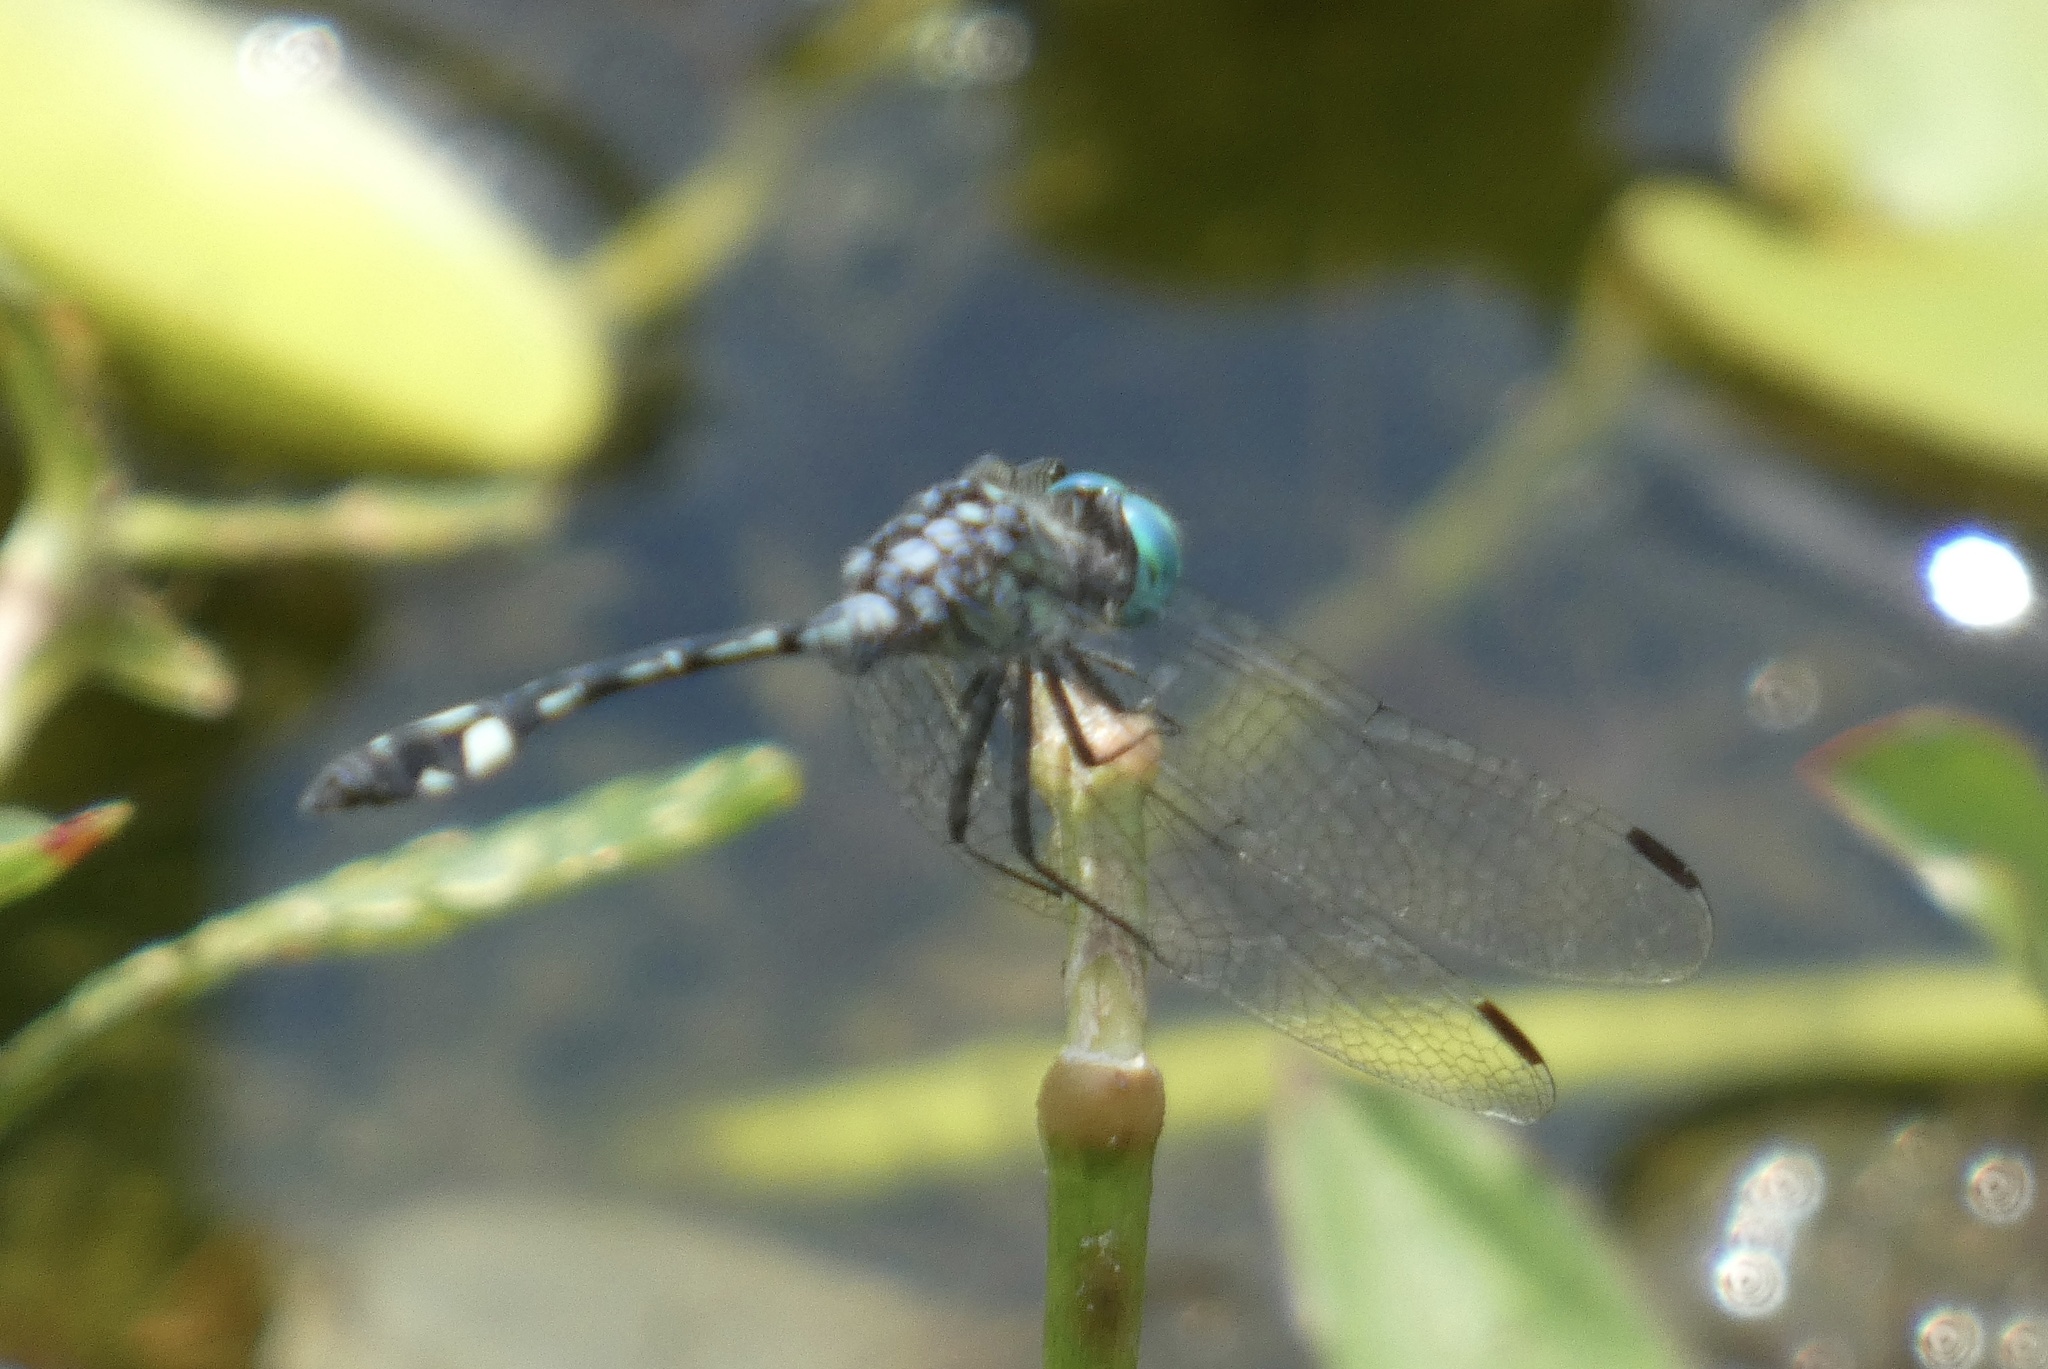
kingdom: Animalia
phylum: Arthropoda
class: Insecta
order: Odonata
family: Libellulidae
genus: Micrathyria
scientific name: Micrathyria catenata
